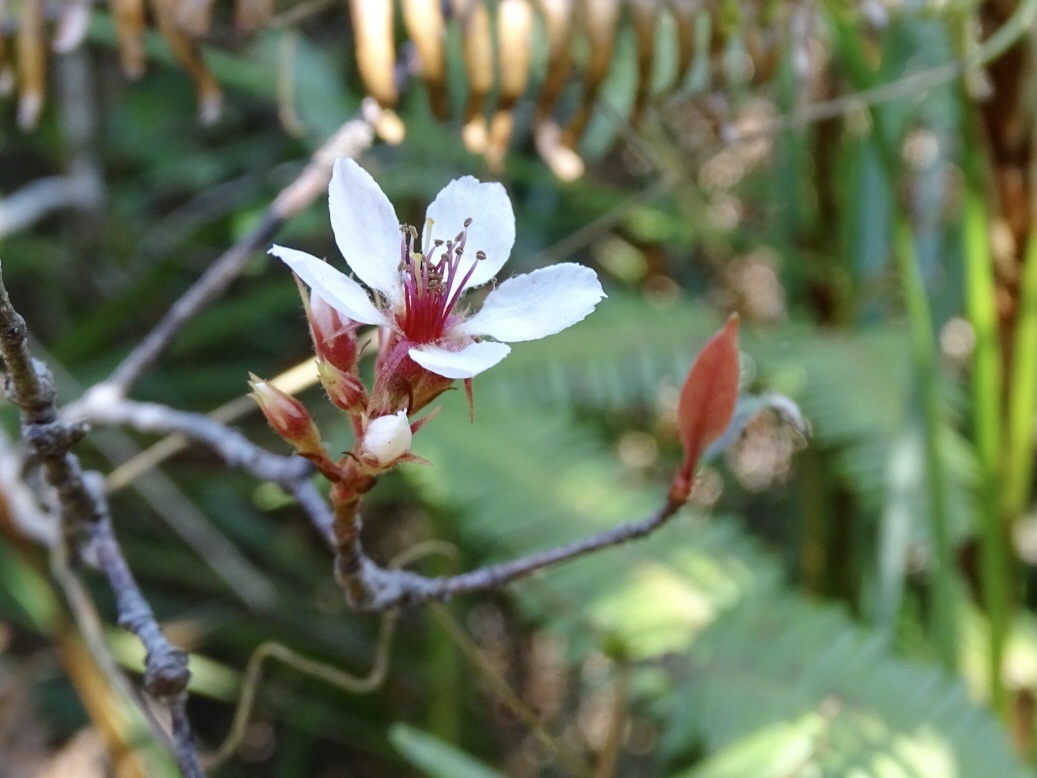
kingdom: Plantae
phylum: Tracheophyta
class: Magnoliopsida
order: Rosales
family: Rosaceae
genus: Rhaphiolepis
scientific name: Rhaphiolepis indica
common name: India-hawthorn
